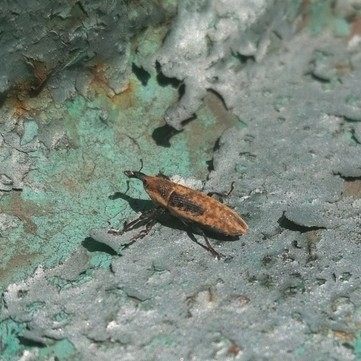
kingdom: Animalia
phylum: Arthropoda
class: Insecta
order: Coleoptera
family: Curculionidae
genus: Lixus
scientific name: Lixus subtilis
